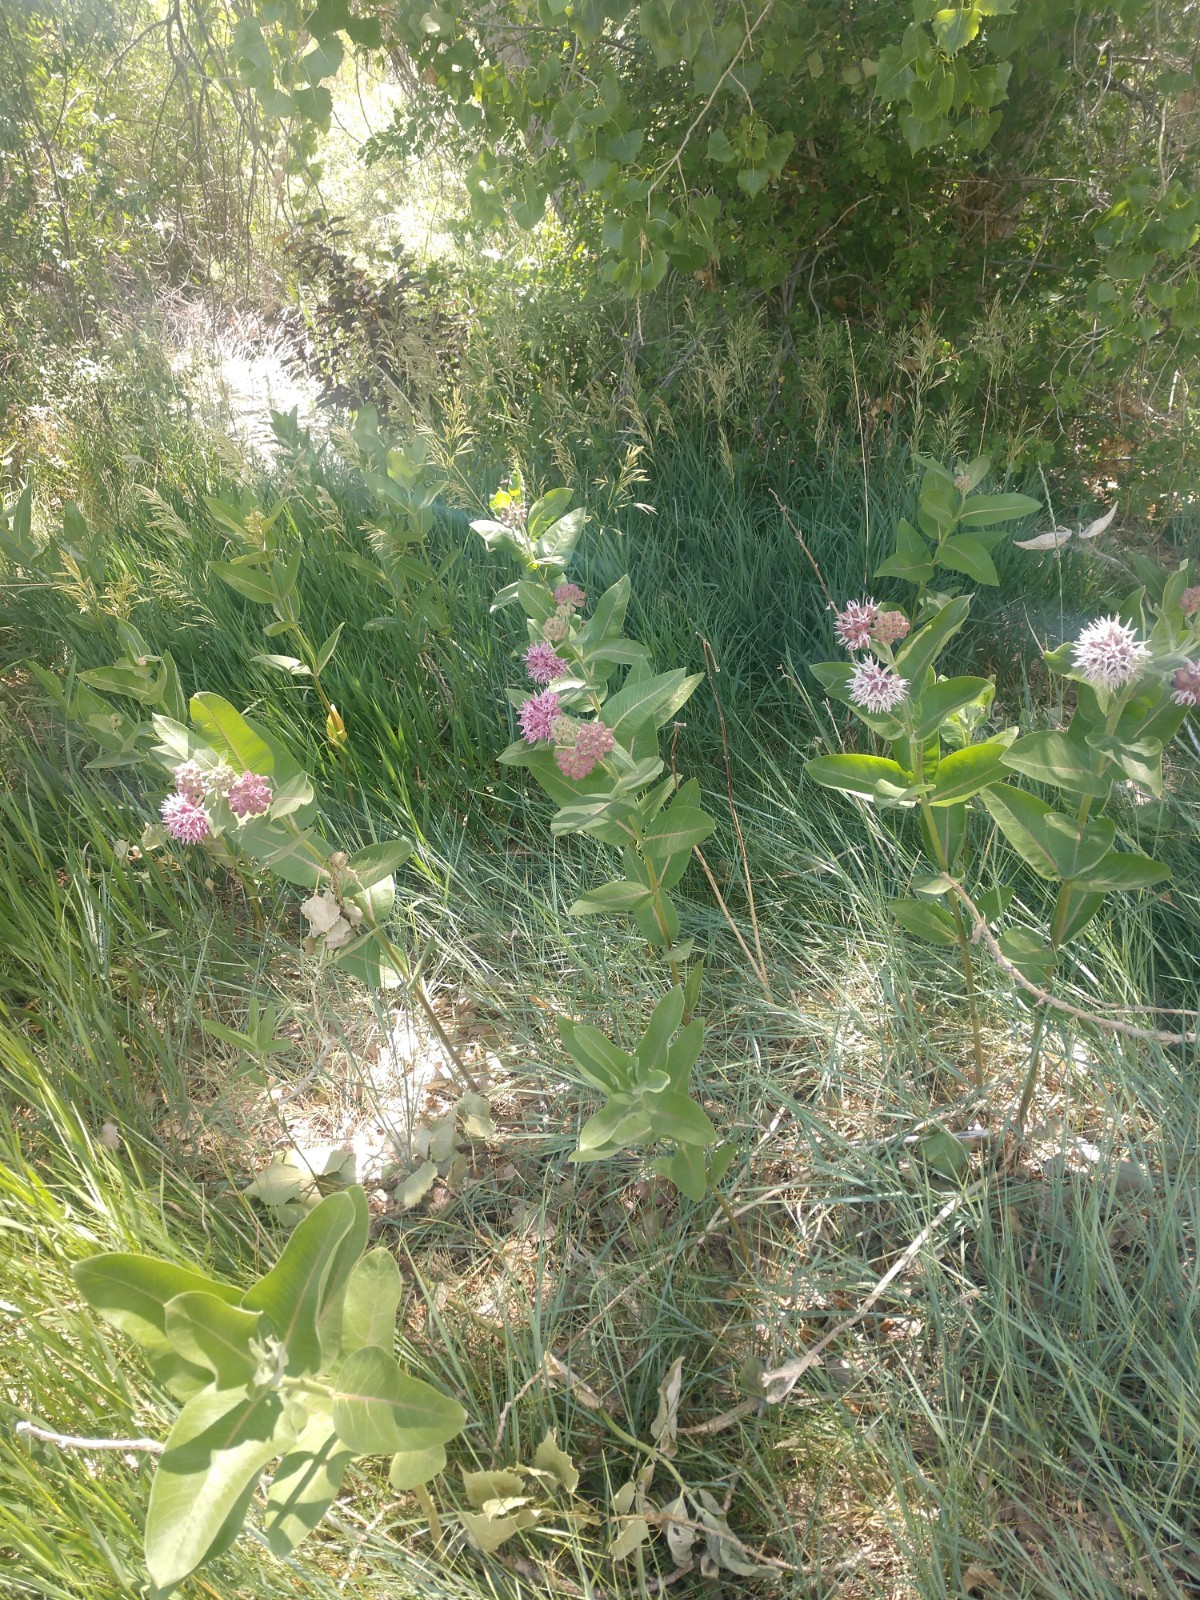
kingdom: Plantae
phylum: Tracheophyta
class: Magnoliopsida
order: Gentianales
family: Apocynaceae
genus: Asclepias
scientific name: Asclepias speciosa
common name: Showy milkweed
